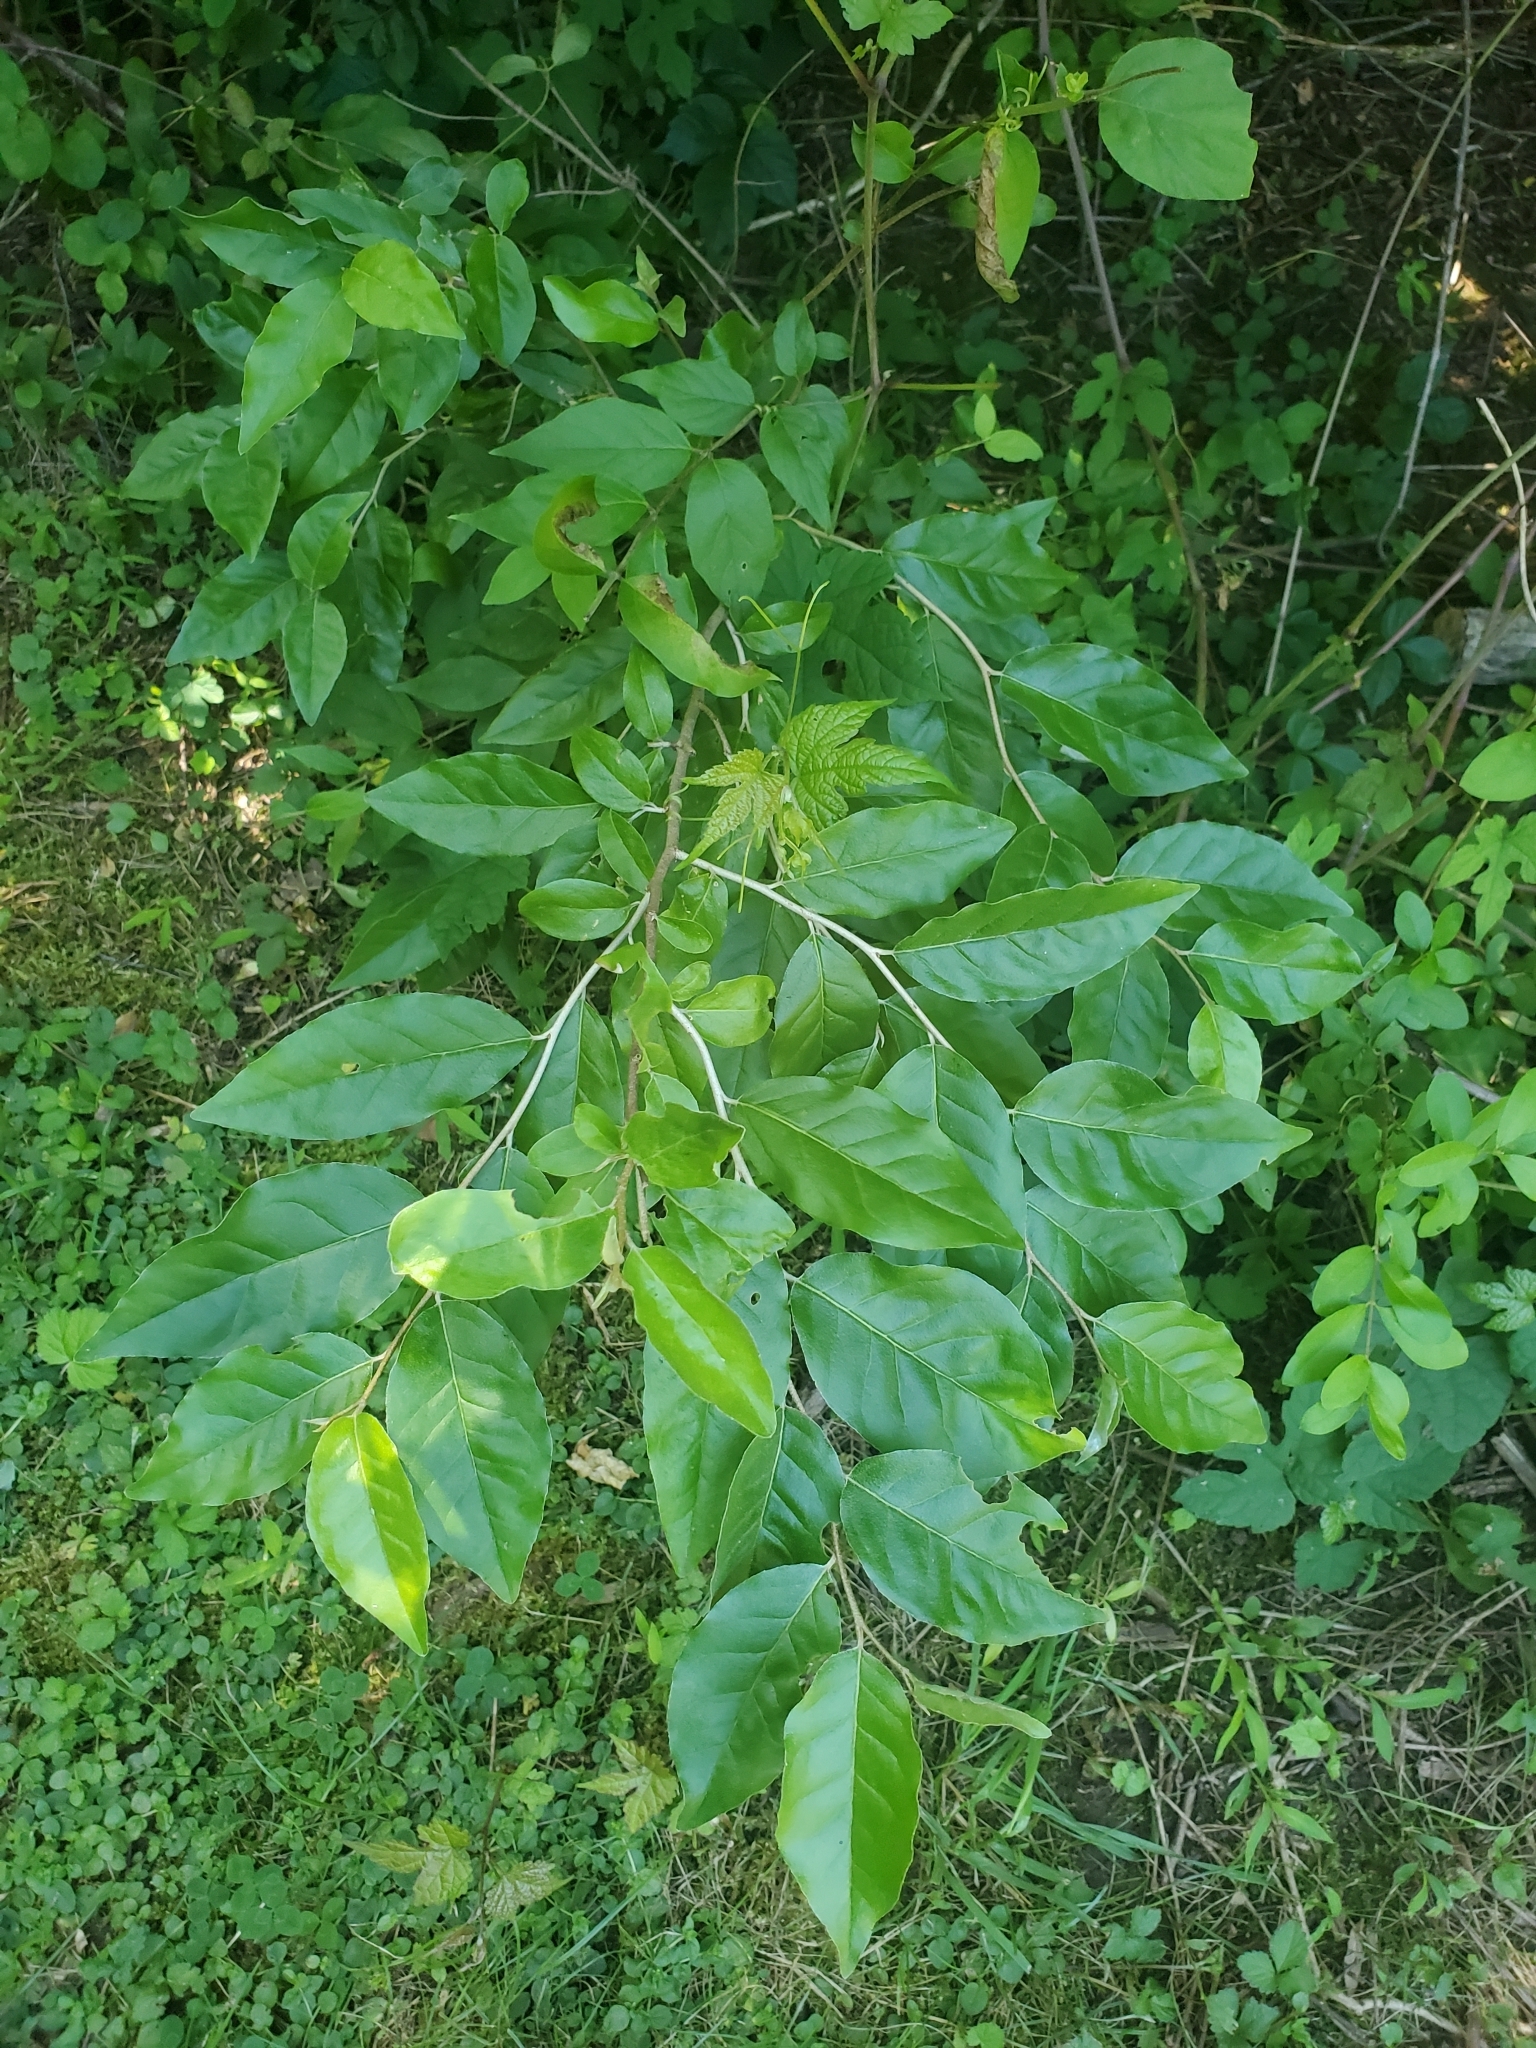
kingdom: Plantae
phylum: Tracheophyta
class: Magnoliopsida
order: Rosales
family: Elaeagnaceae
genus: Elaeagnus
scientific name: Elaeagnus umbellata
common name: Autumn olive
